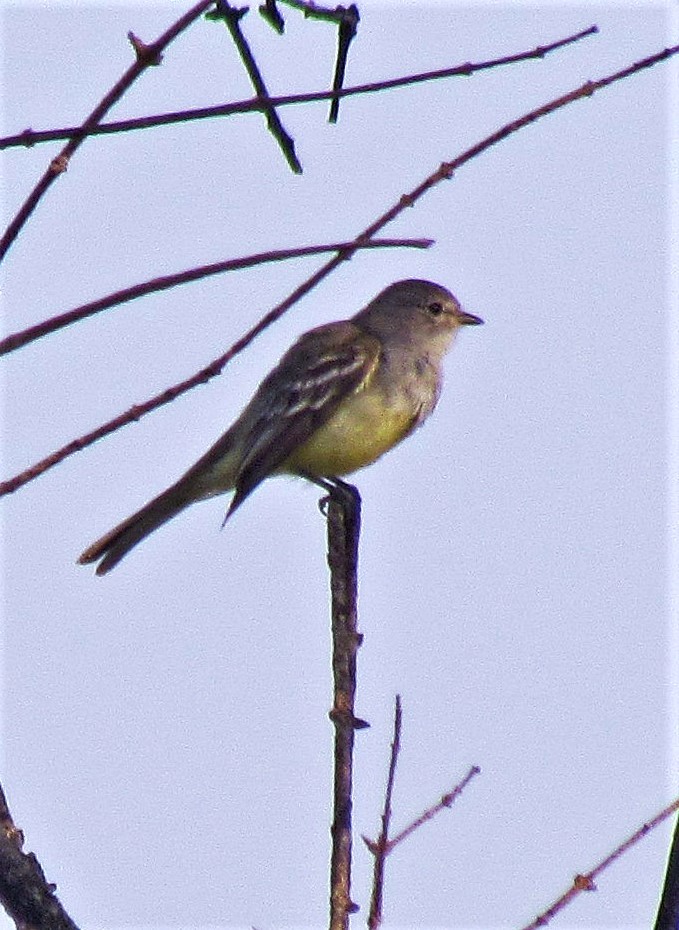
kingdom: Animalia
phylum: Chordata
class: Aves
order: Passeriformes
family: Tyrannidae
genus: Sublegatus
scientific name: Sublegatus modestus
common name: Southern scrub flycatcher
